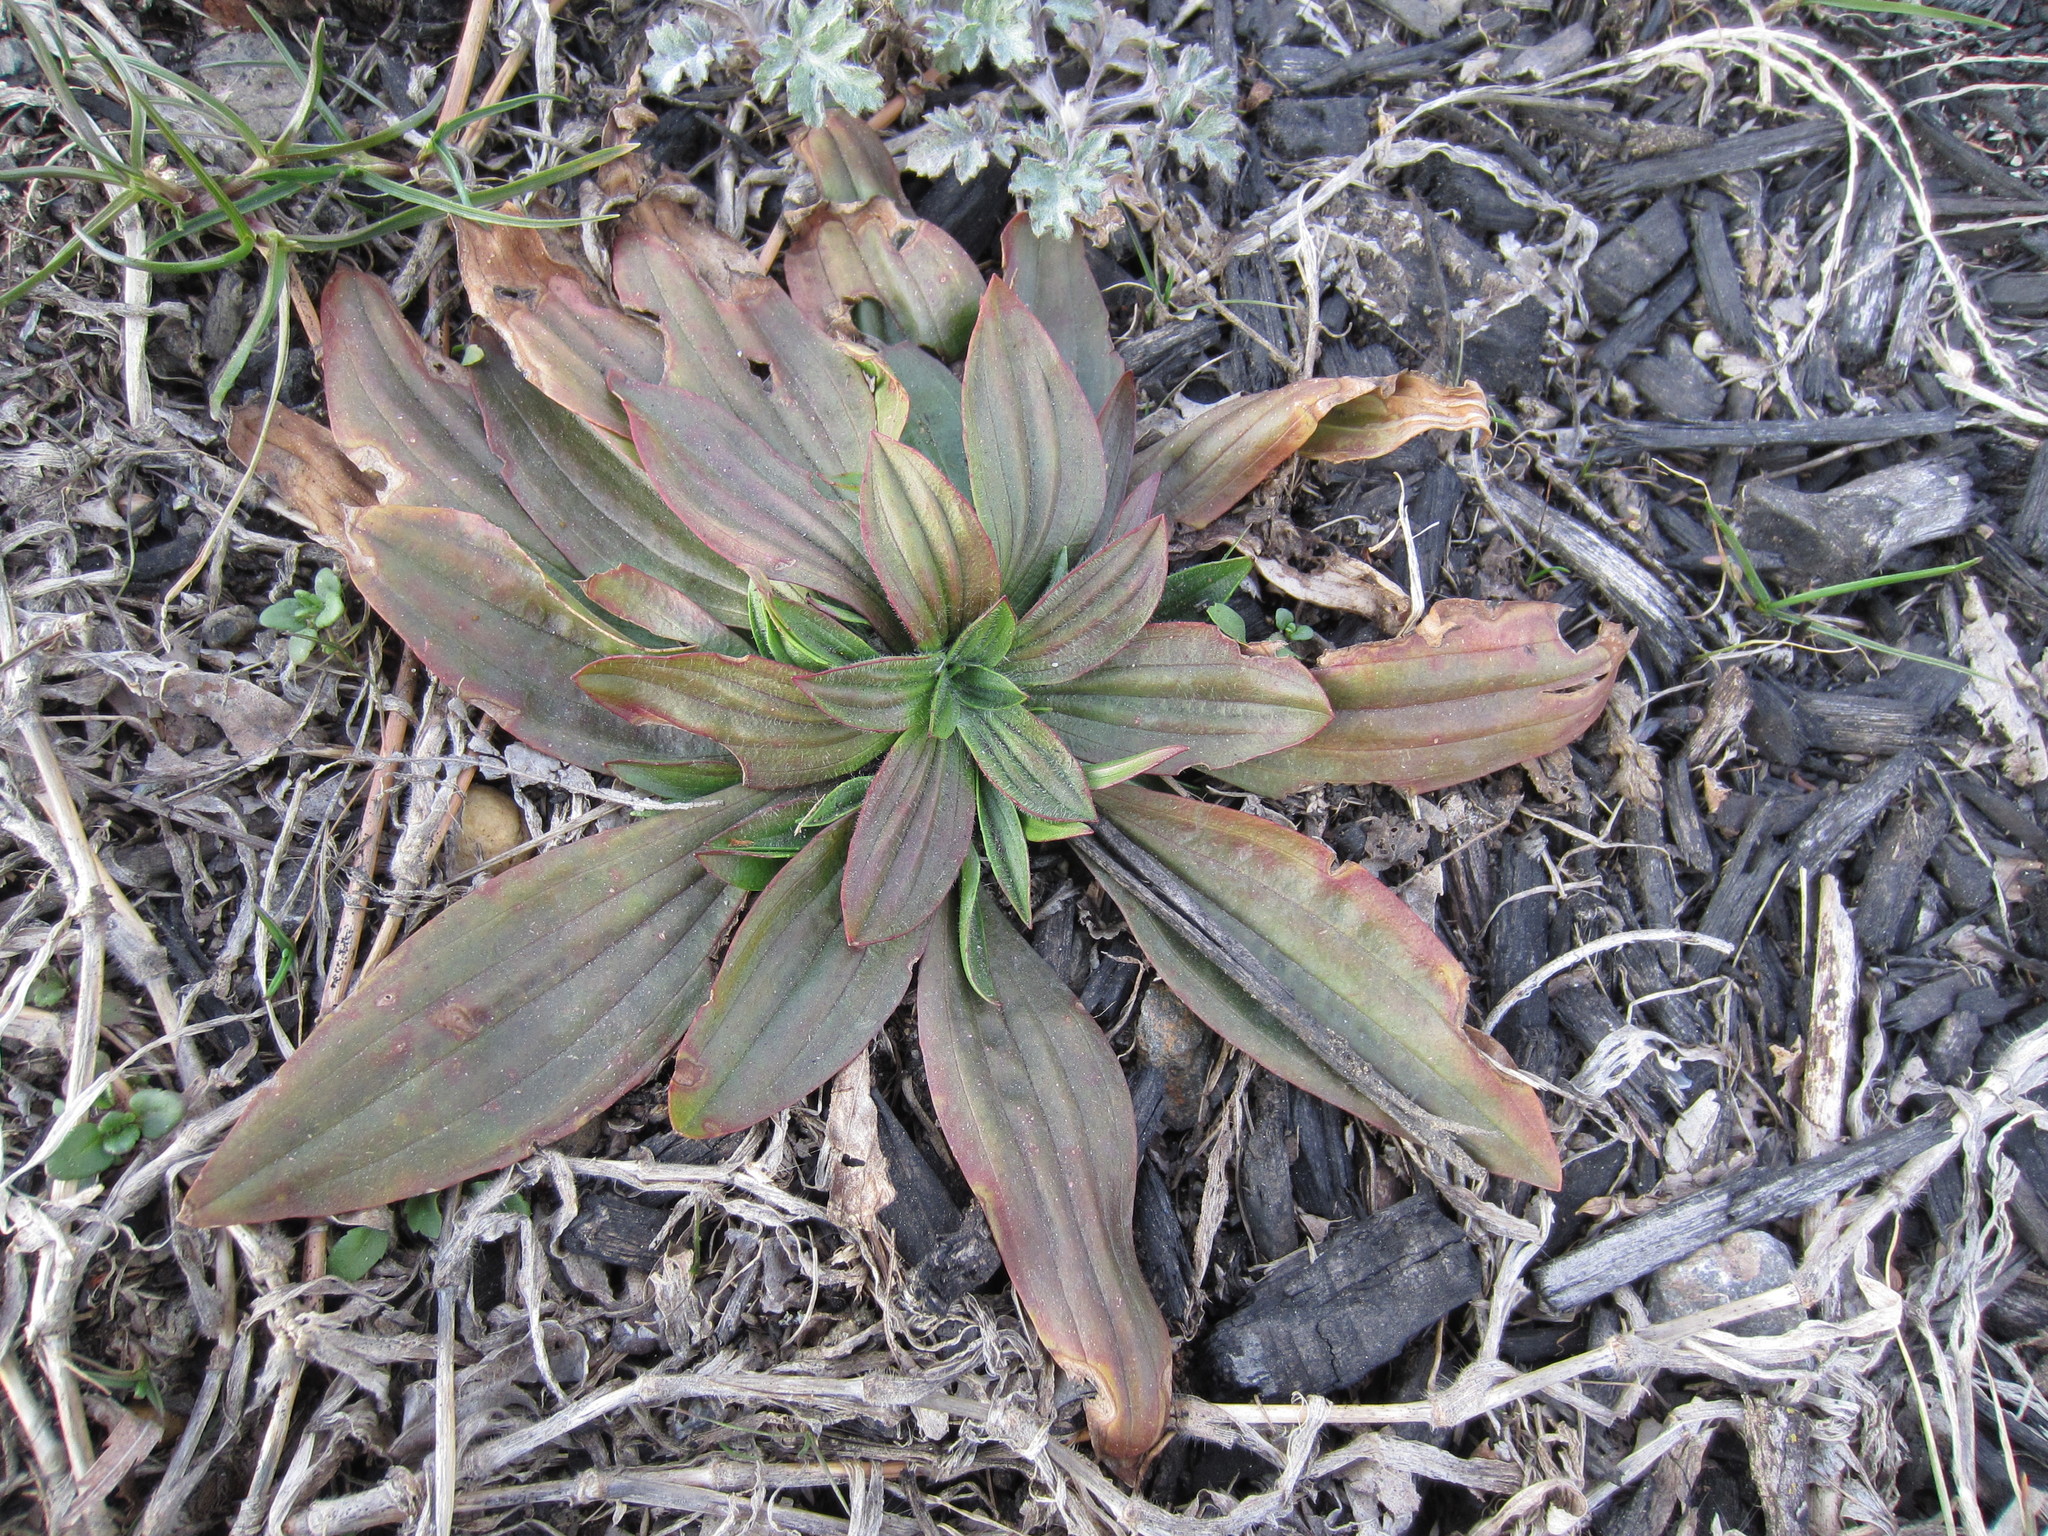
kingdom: Plantae
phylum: Tracheophyta
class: Magnoliopsida
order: Lamiales
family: Plantaginaceae
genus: Plantago
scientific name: Plantago lanceolata
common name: Ribwort plantain
